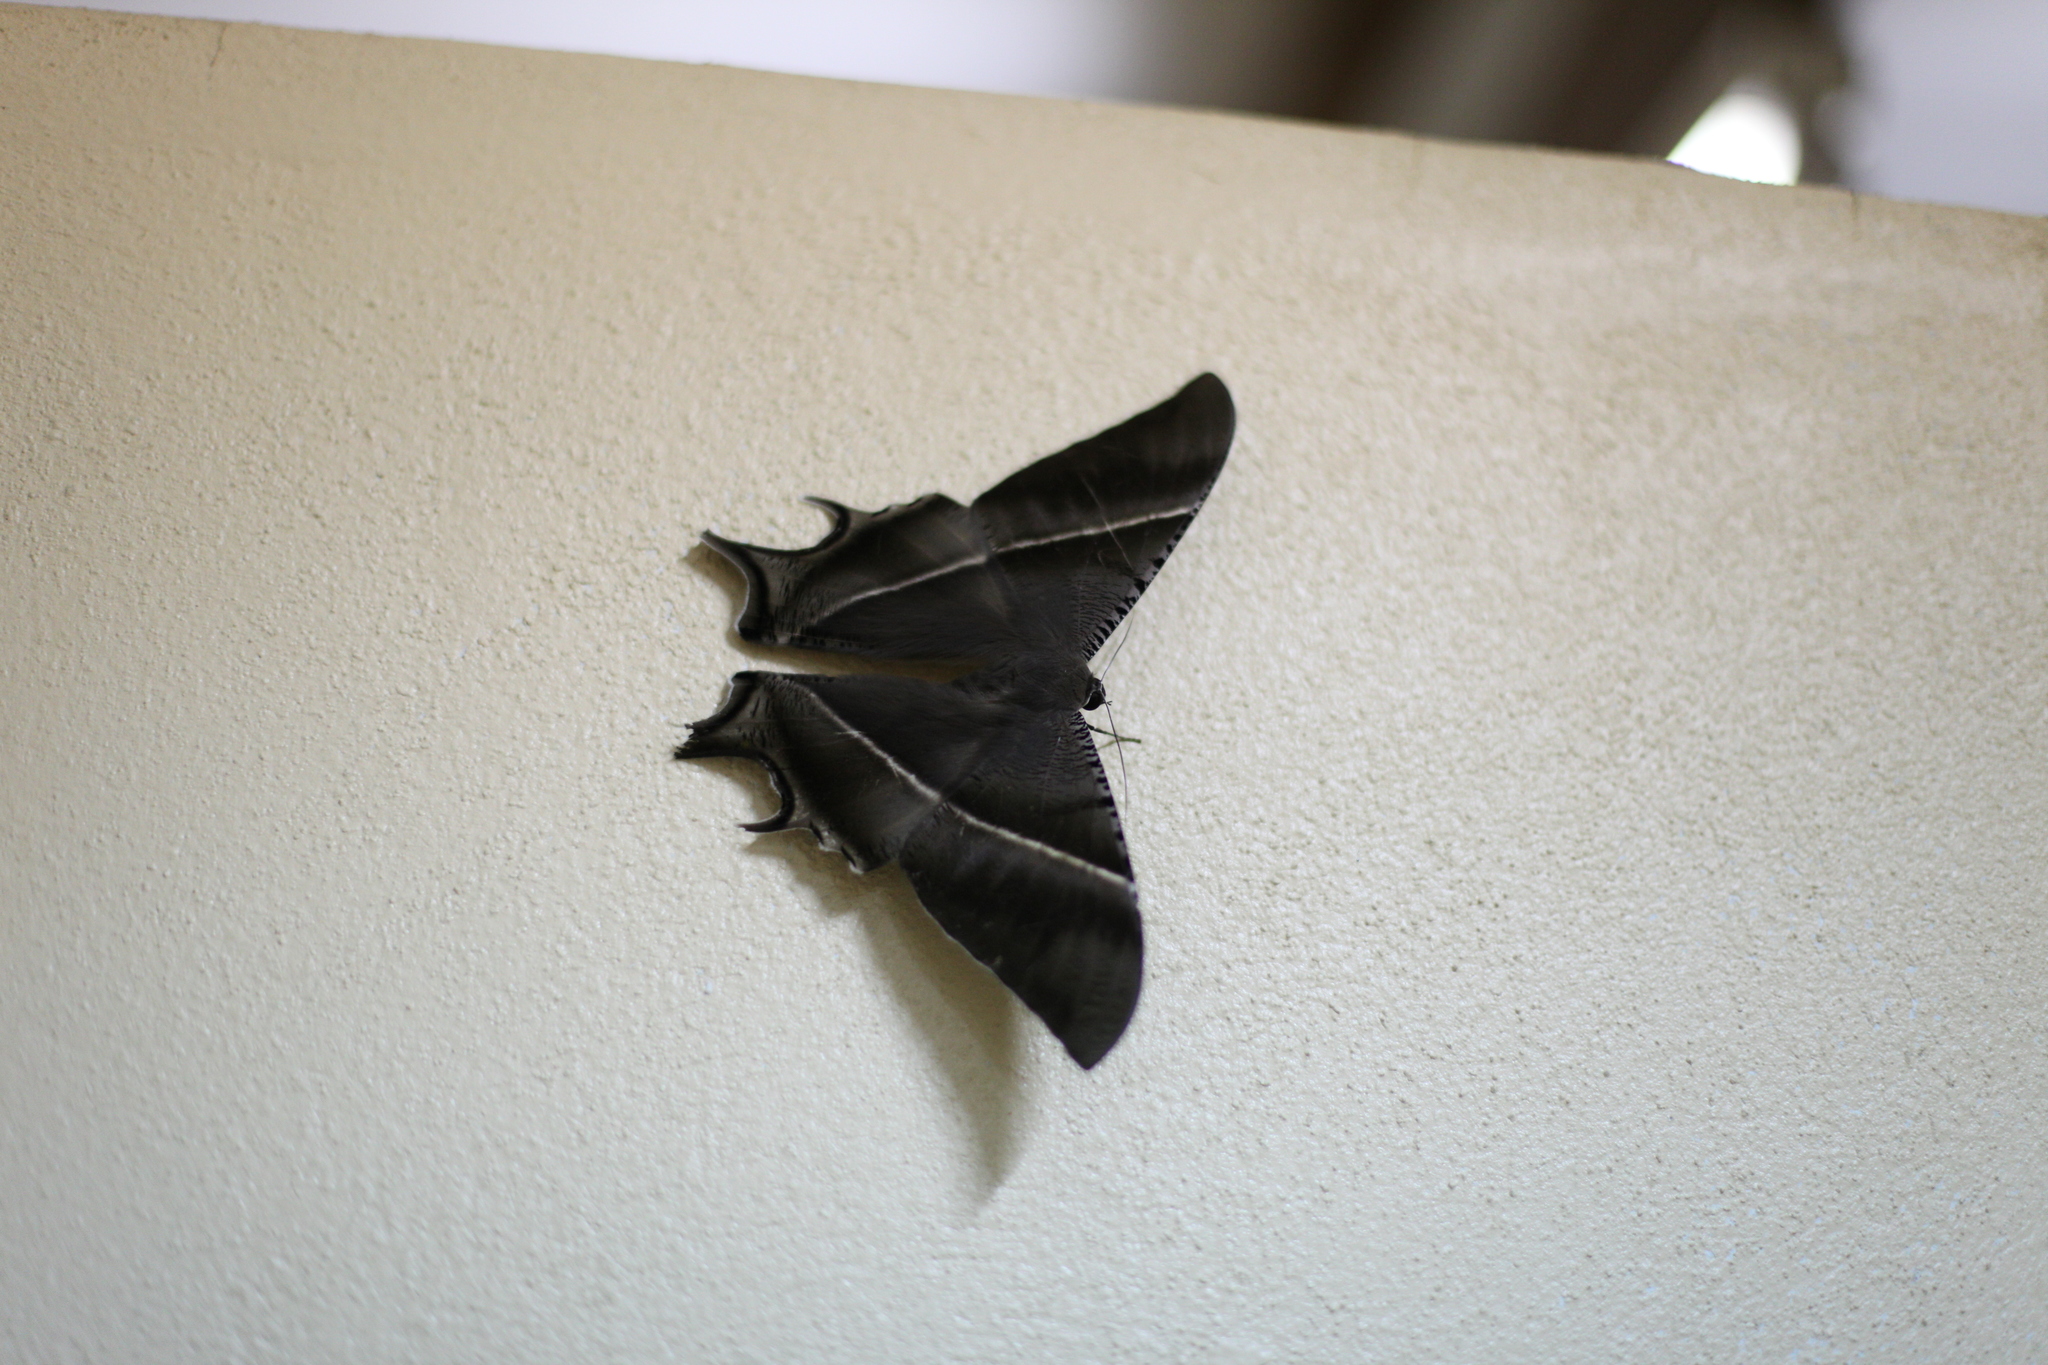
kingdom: Animalia
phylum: Arthropoda
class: Insecta
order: Lepidoptera
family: Uraniidae
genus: Lyssa
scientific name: Lyssa zampa
